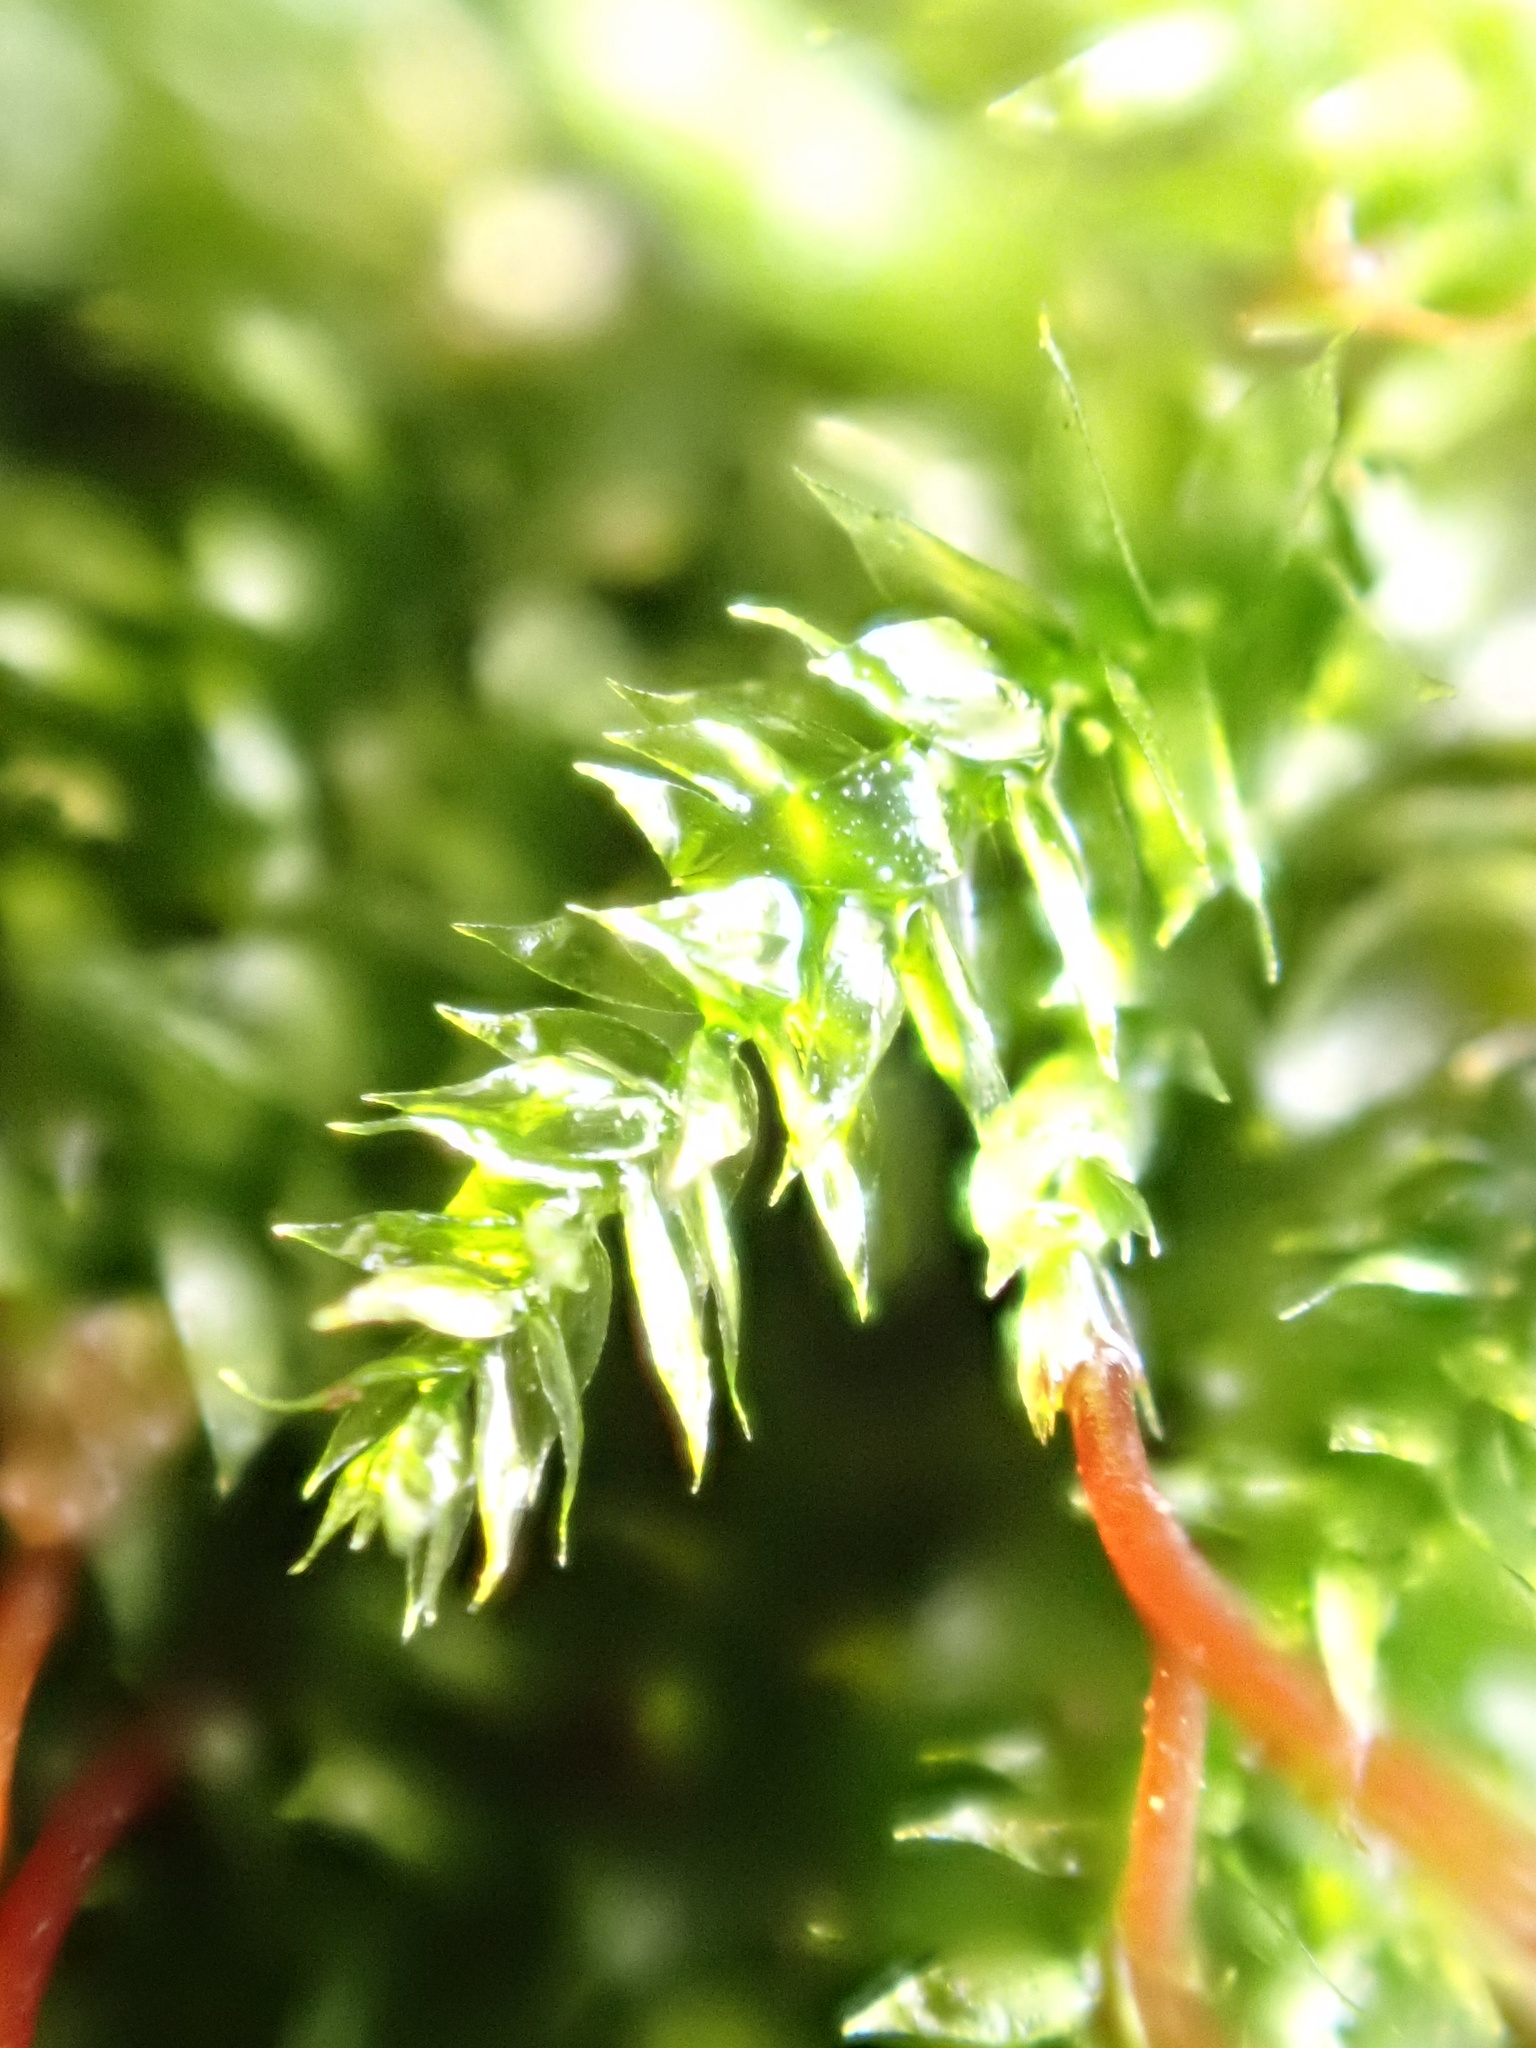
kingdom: Plantae
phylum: Bryophyta
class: Bryopsida
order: Hypnales
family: Brachytheciaceae
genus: Rhynchostegium
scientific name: Rhynchostegium confertum
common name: Clustered feather-moss
